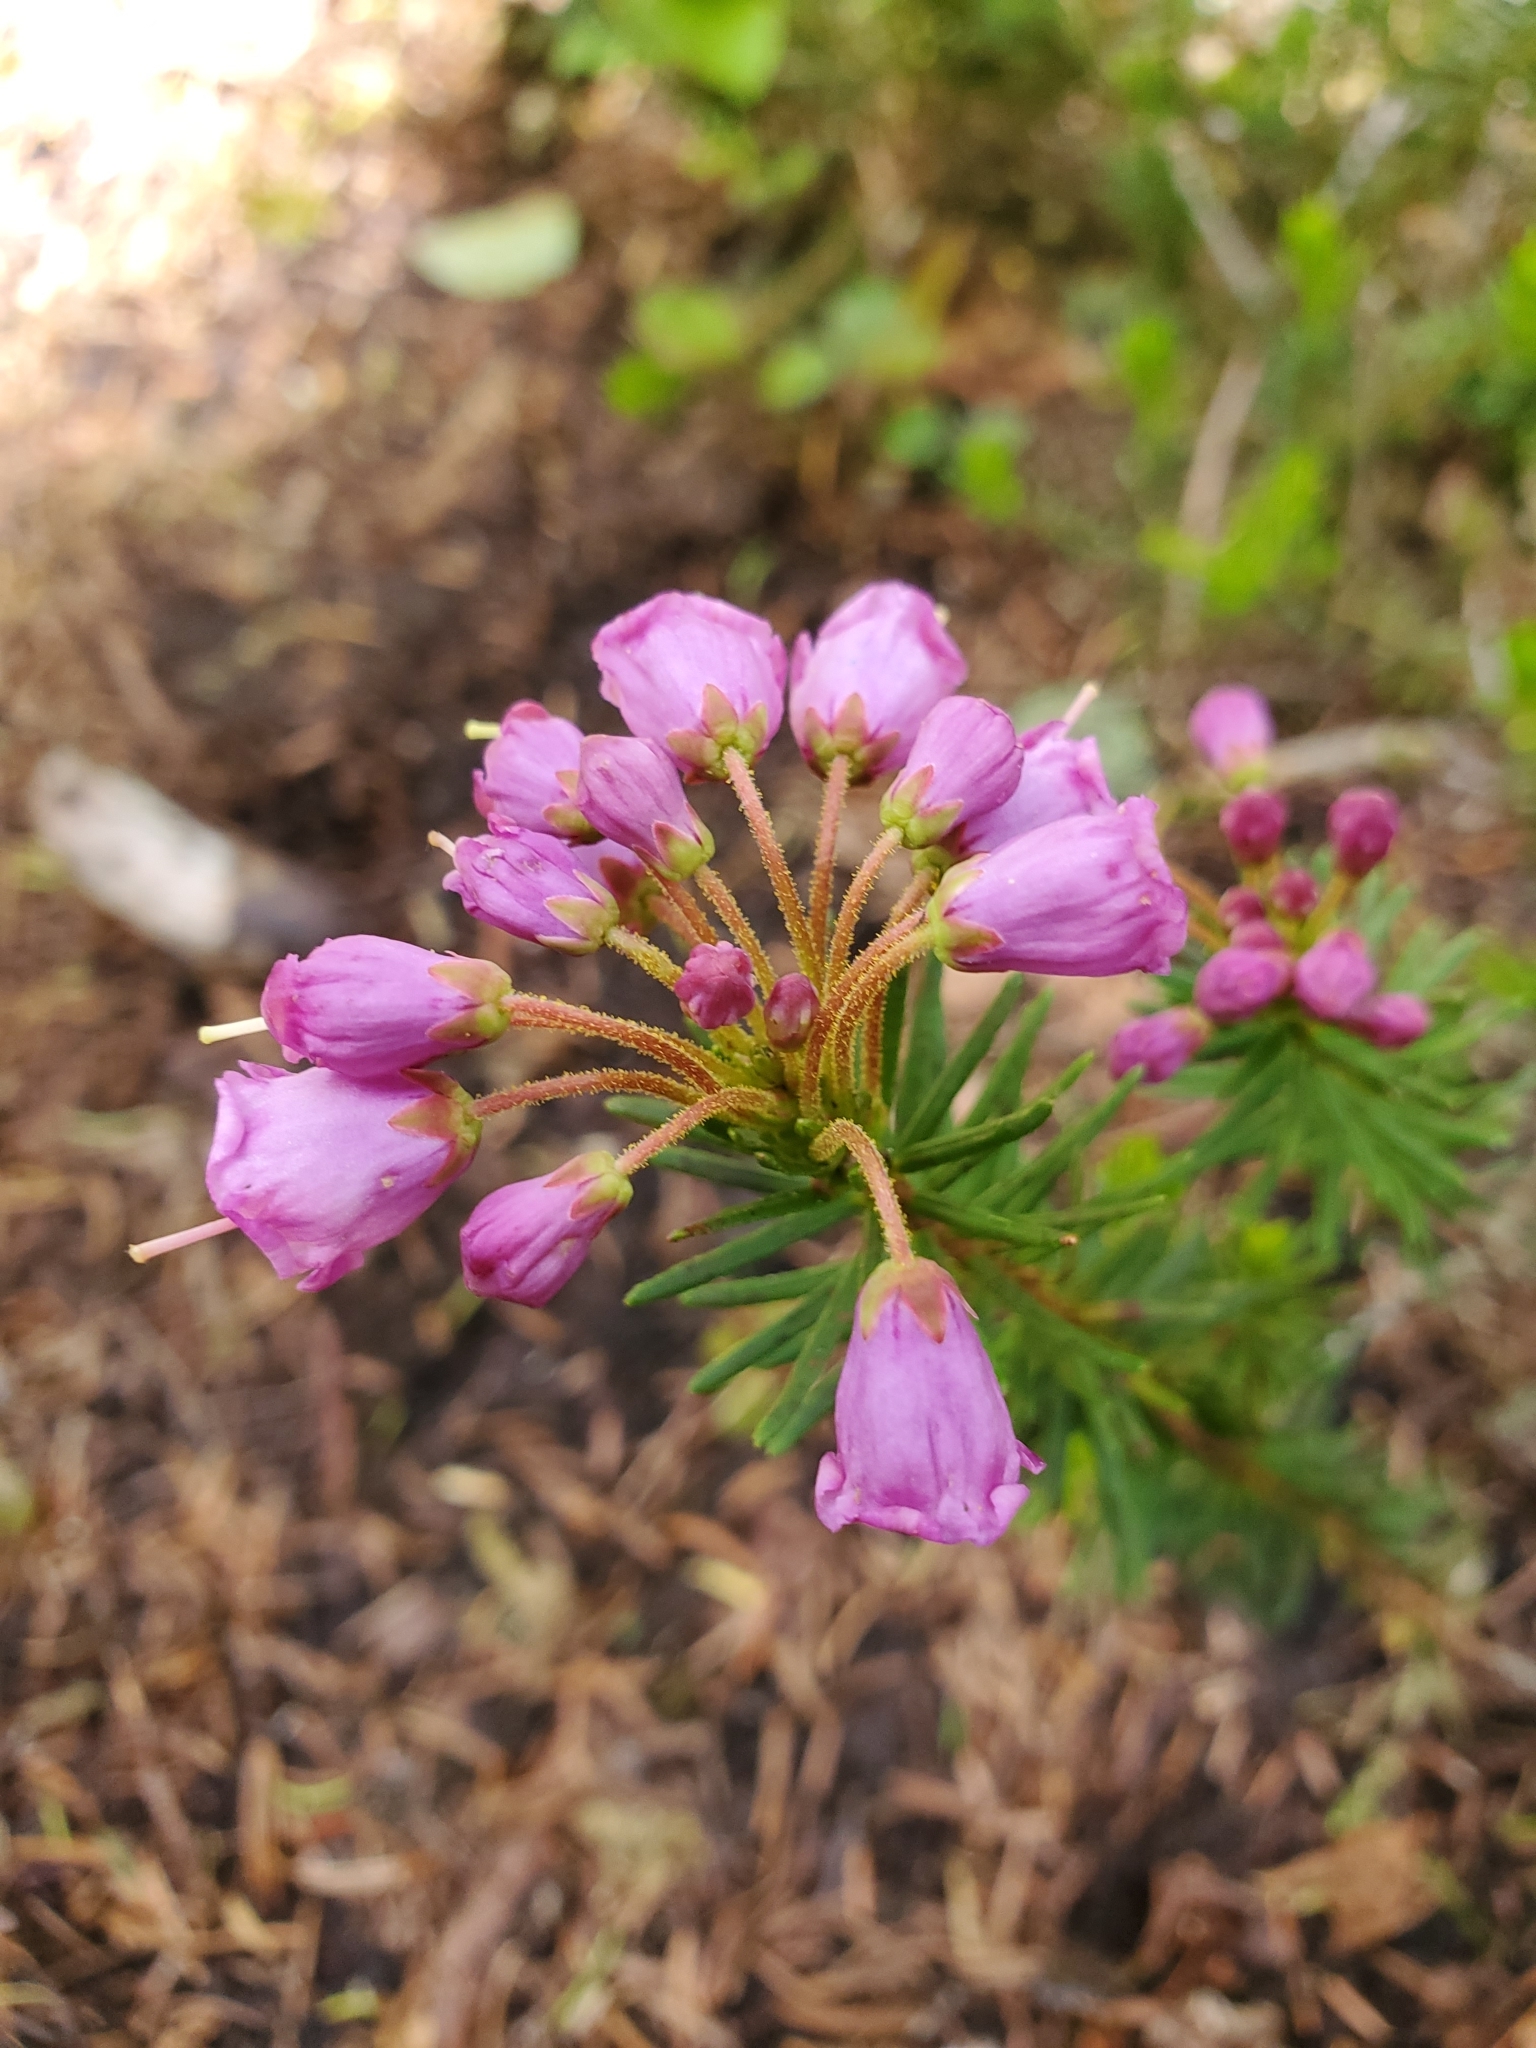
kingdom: Plantae
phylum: Tracheophyta
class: Magnoliopsida
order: Ericales
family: Ericaceae
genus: Phyllodoce
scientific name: Phyllodoce empetriformis
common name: Pink mountain heather
